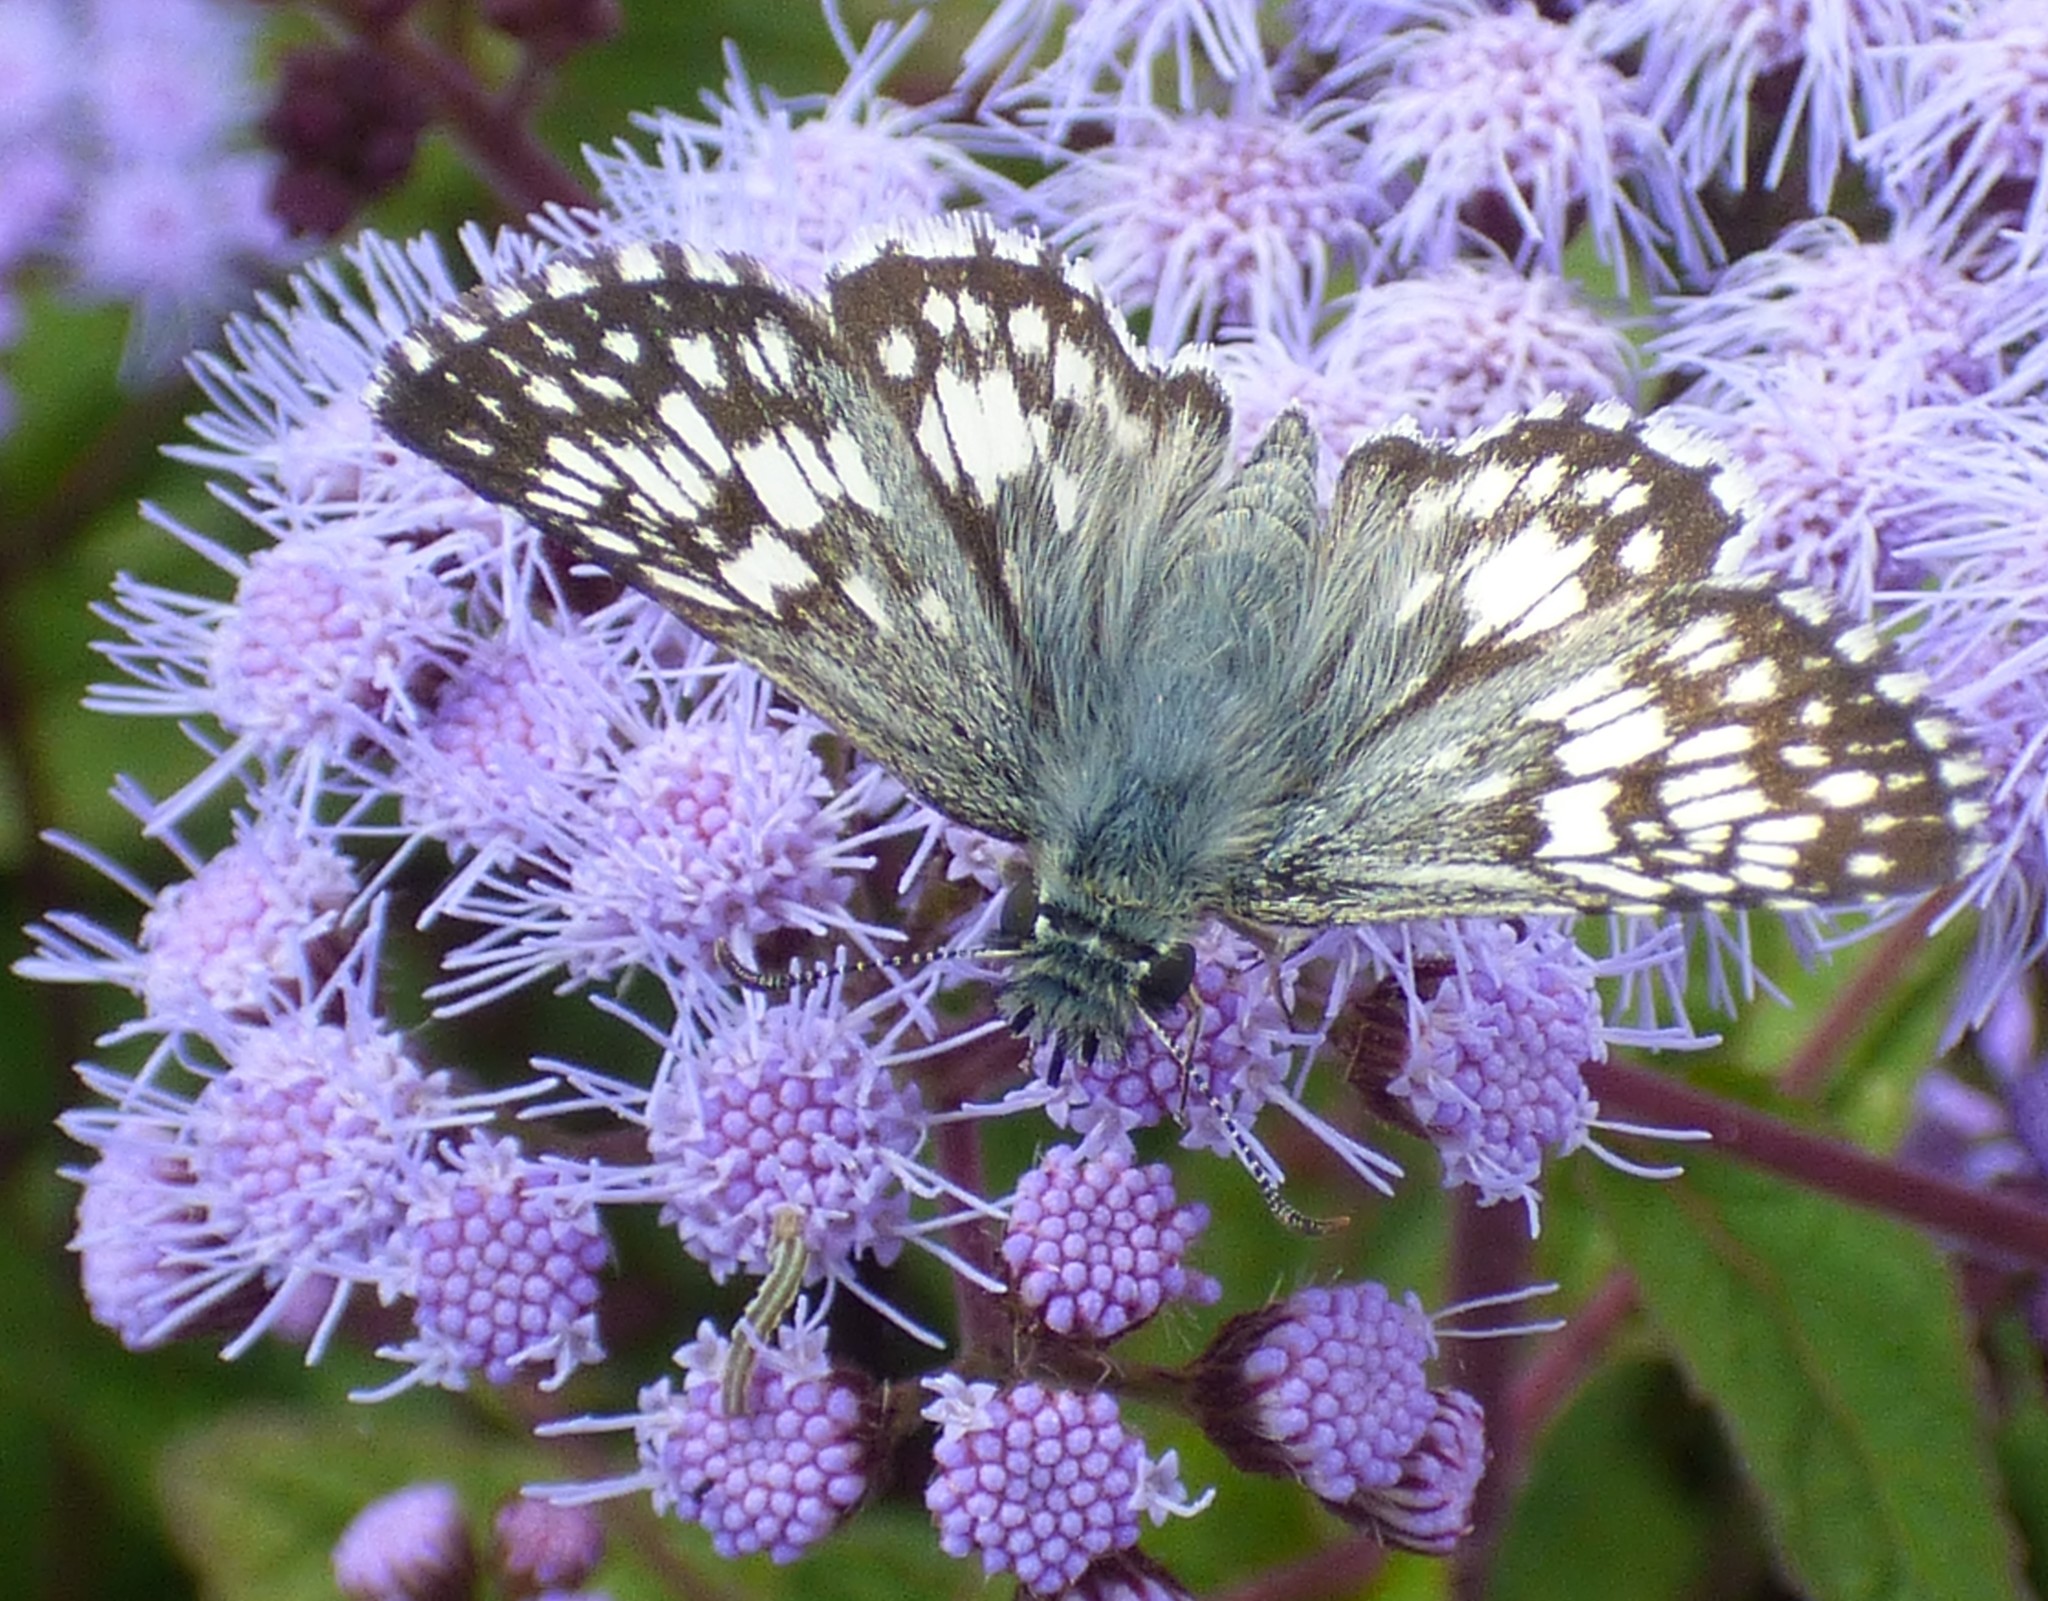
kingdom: Animalia
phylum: Arthropoda
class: Insecta
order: Lepidoptera
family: Hesperiidae
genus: Burnsius
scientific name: Burnsius
